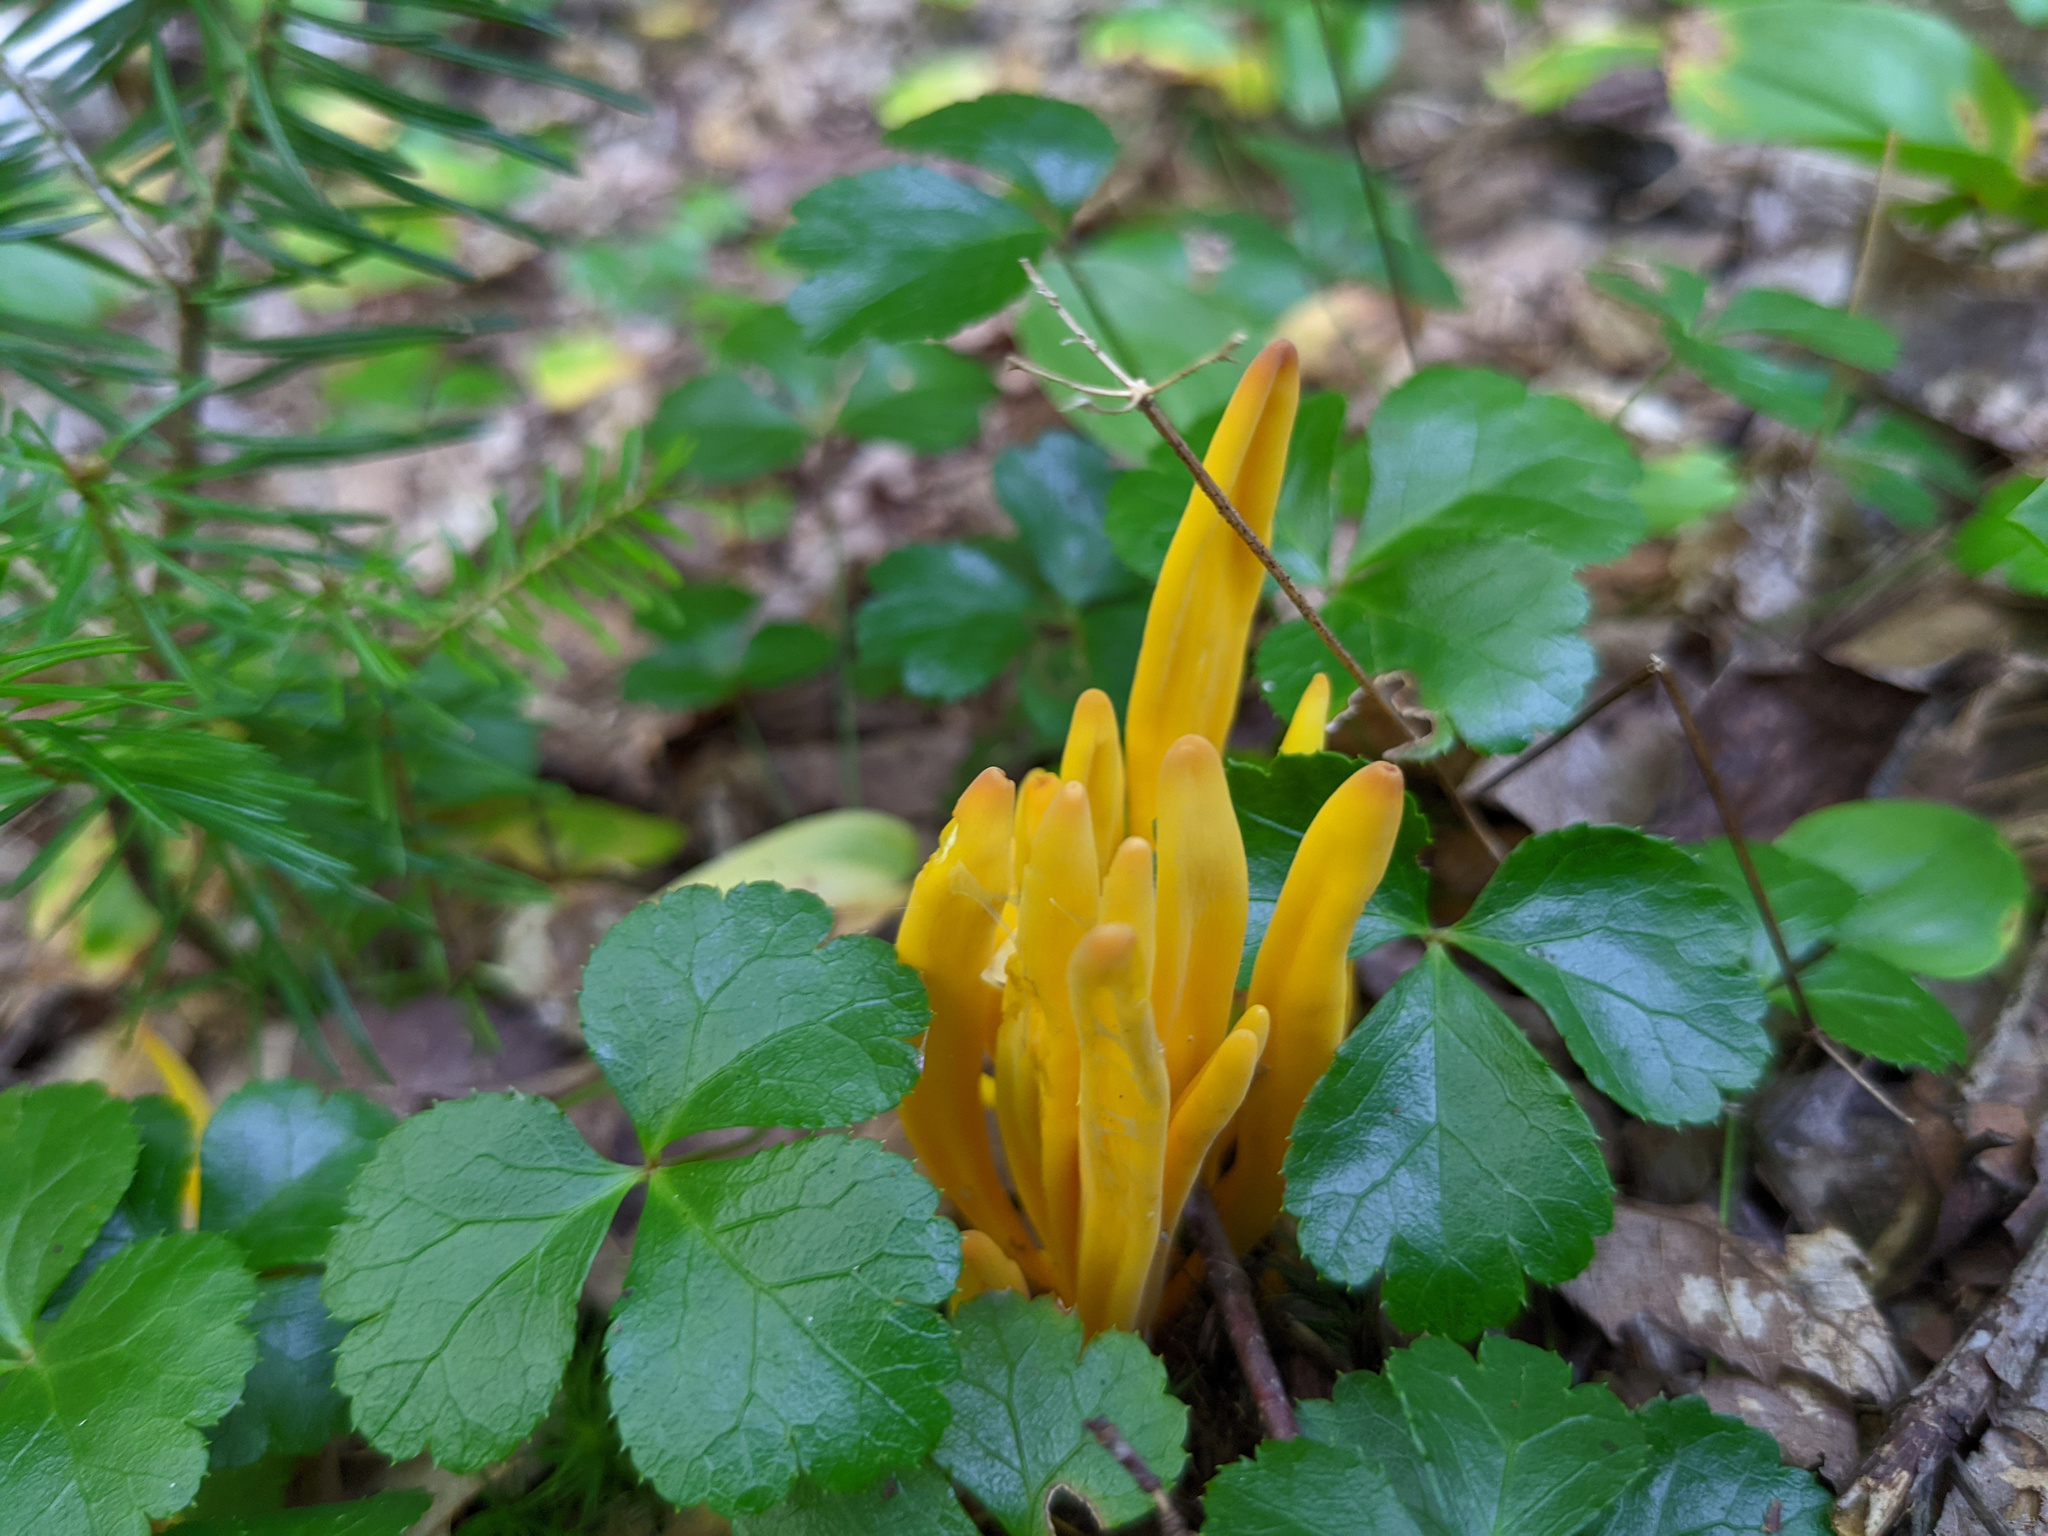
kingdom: Fungi
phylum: Basidiomycota
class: Agaricomycetes
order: Agaricales
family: Clavariaceae
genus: Clavulinopsis
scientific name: Clavulinopsis fusiformis
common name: Golden spindles
